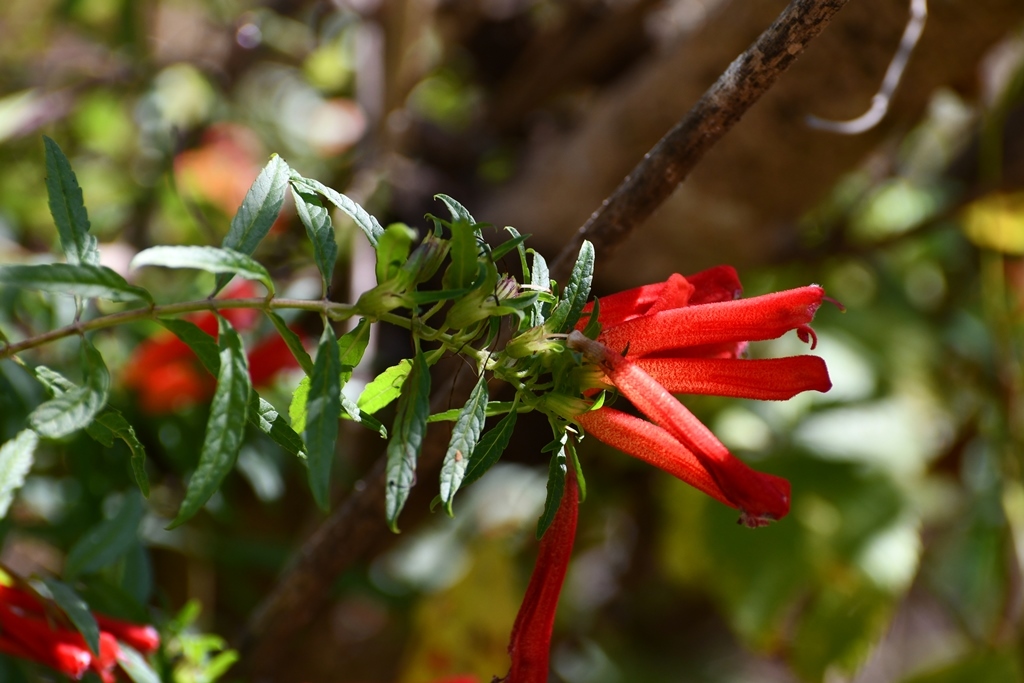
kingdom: Plantae
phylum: Tracheophyta
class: Magnoliopsida
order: Lamiales
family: Orobanchaceae
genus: Lamourouxia
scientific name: Lamourouxia lanceolata
